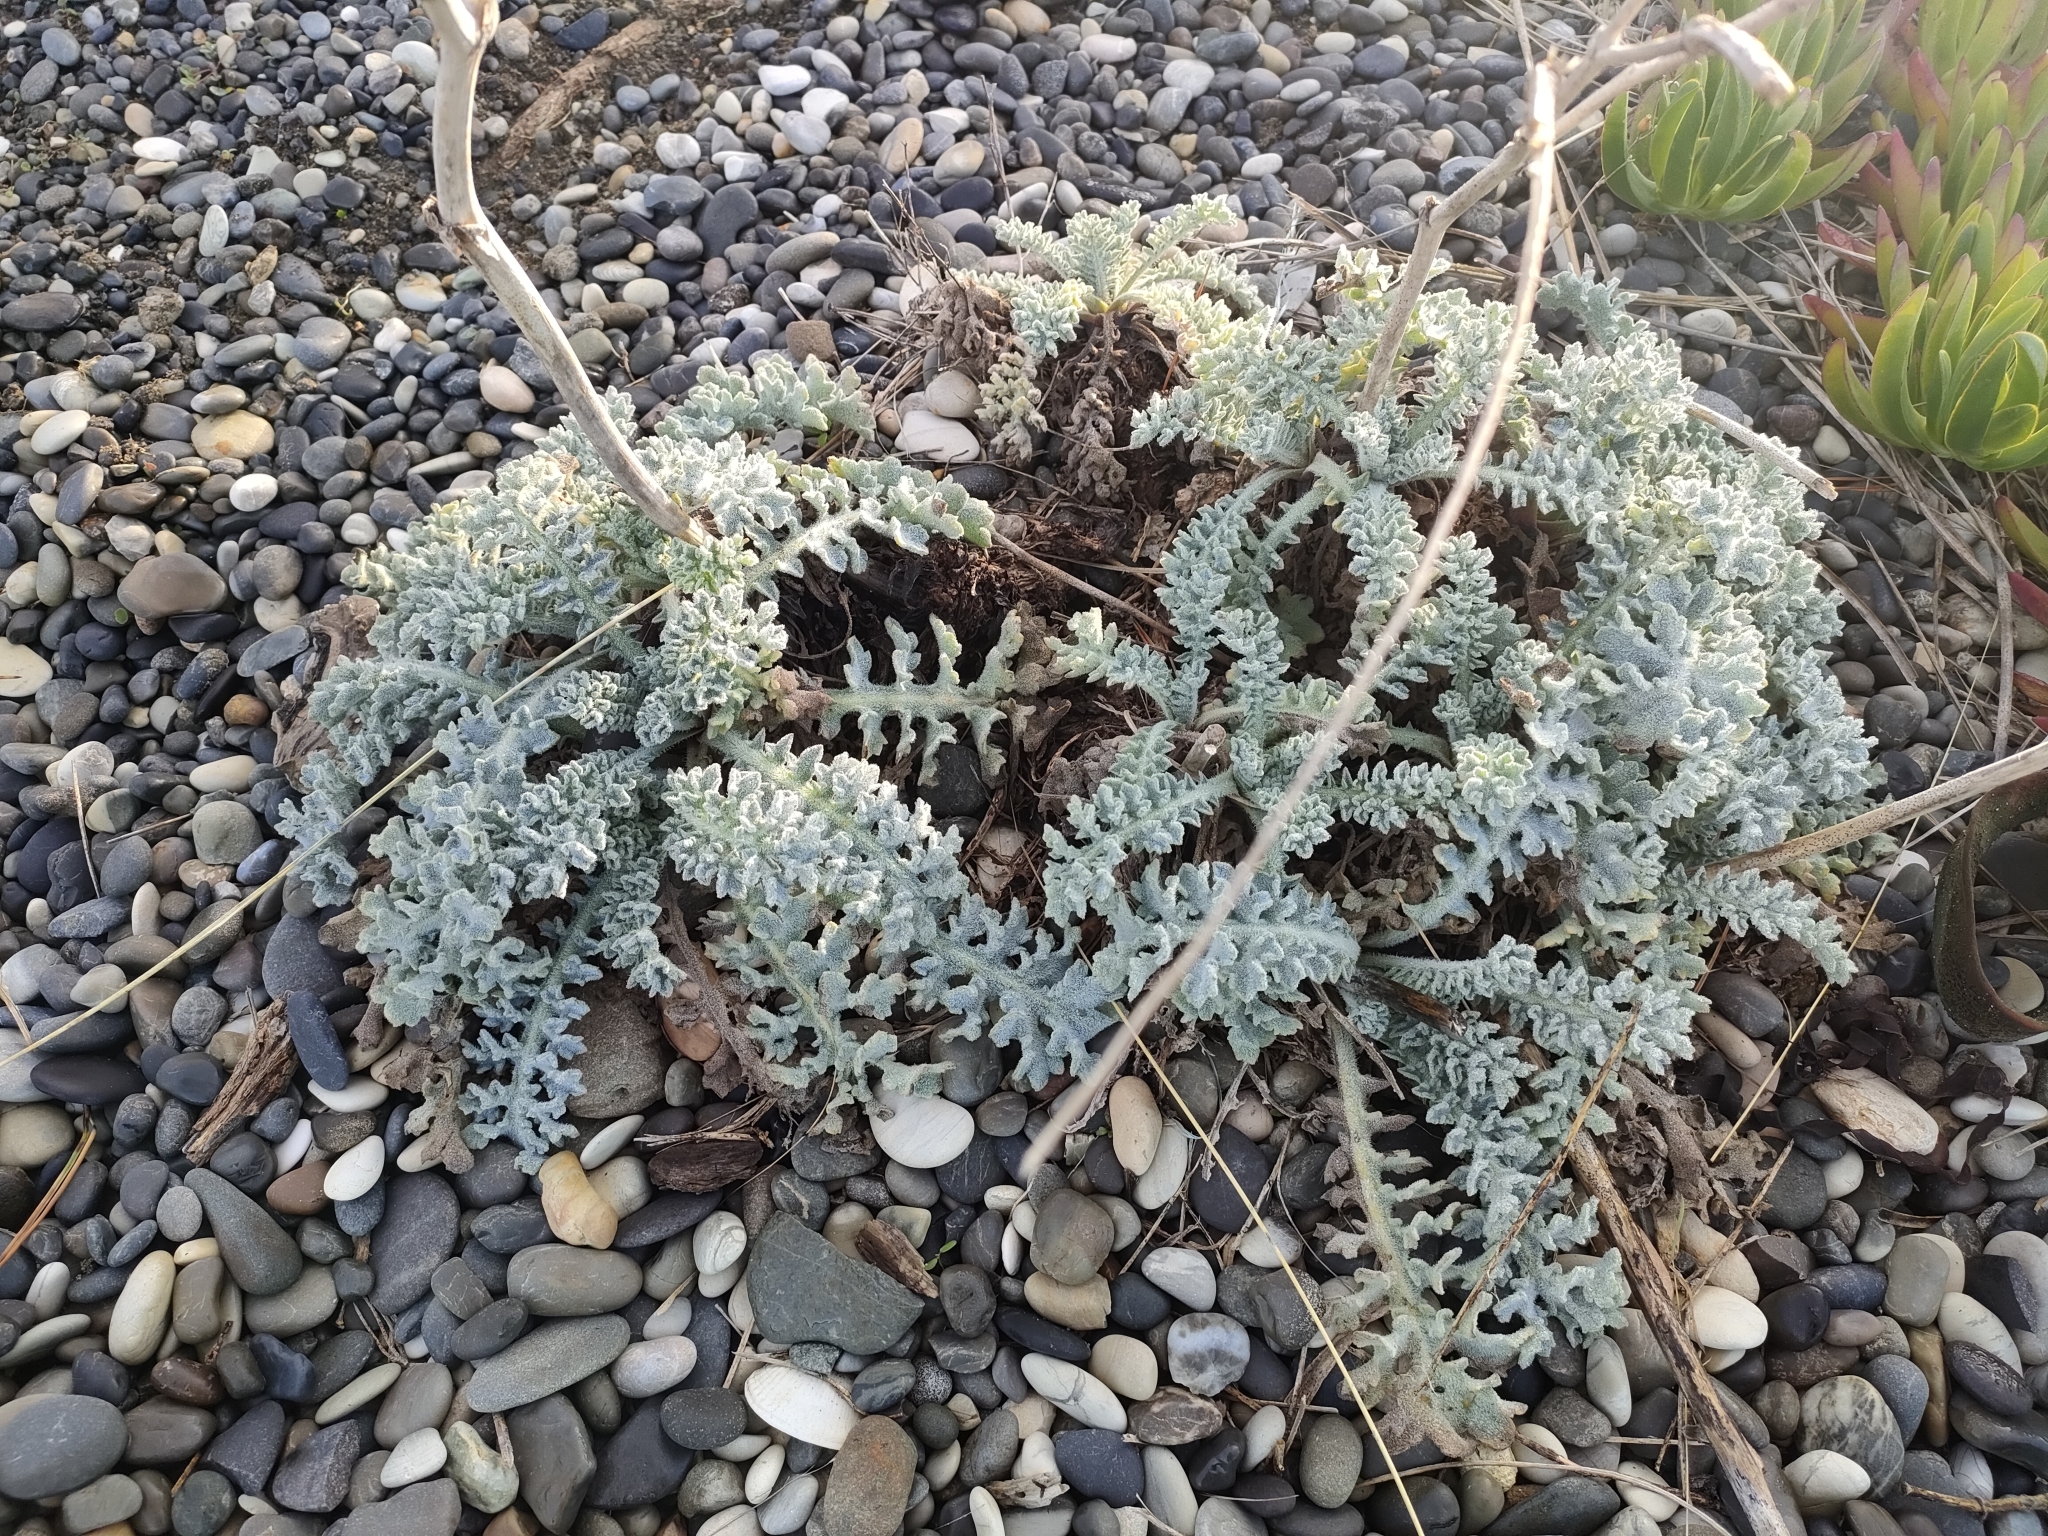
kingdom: Plantae
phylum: Tracheophyta
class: Magnoliopsida
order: Ranunculales
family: Papaveraceae
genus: Glaucium
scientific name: Glaucium flavum
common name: Yellow horned-poppy
